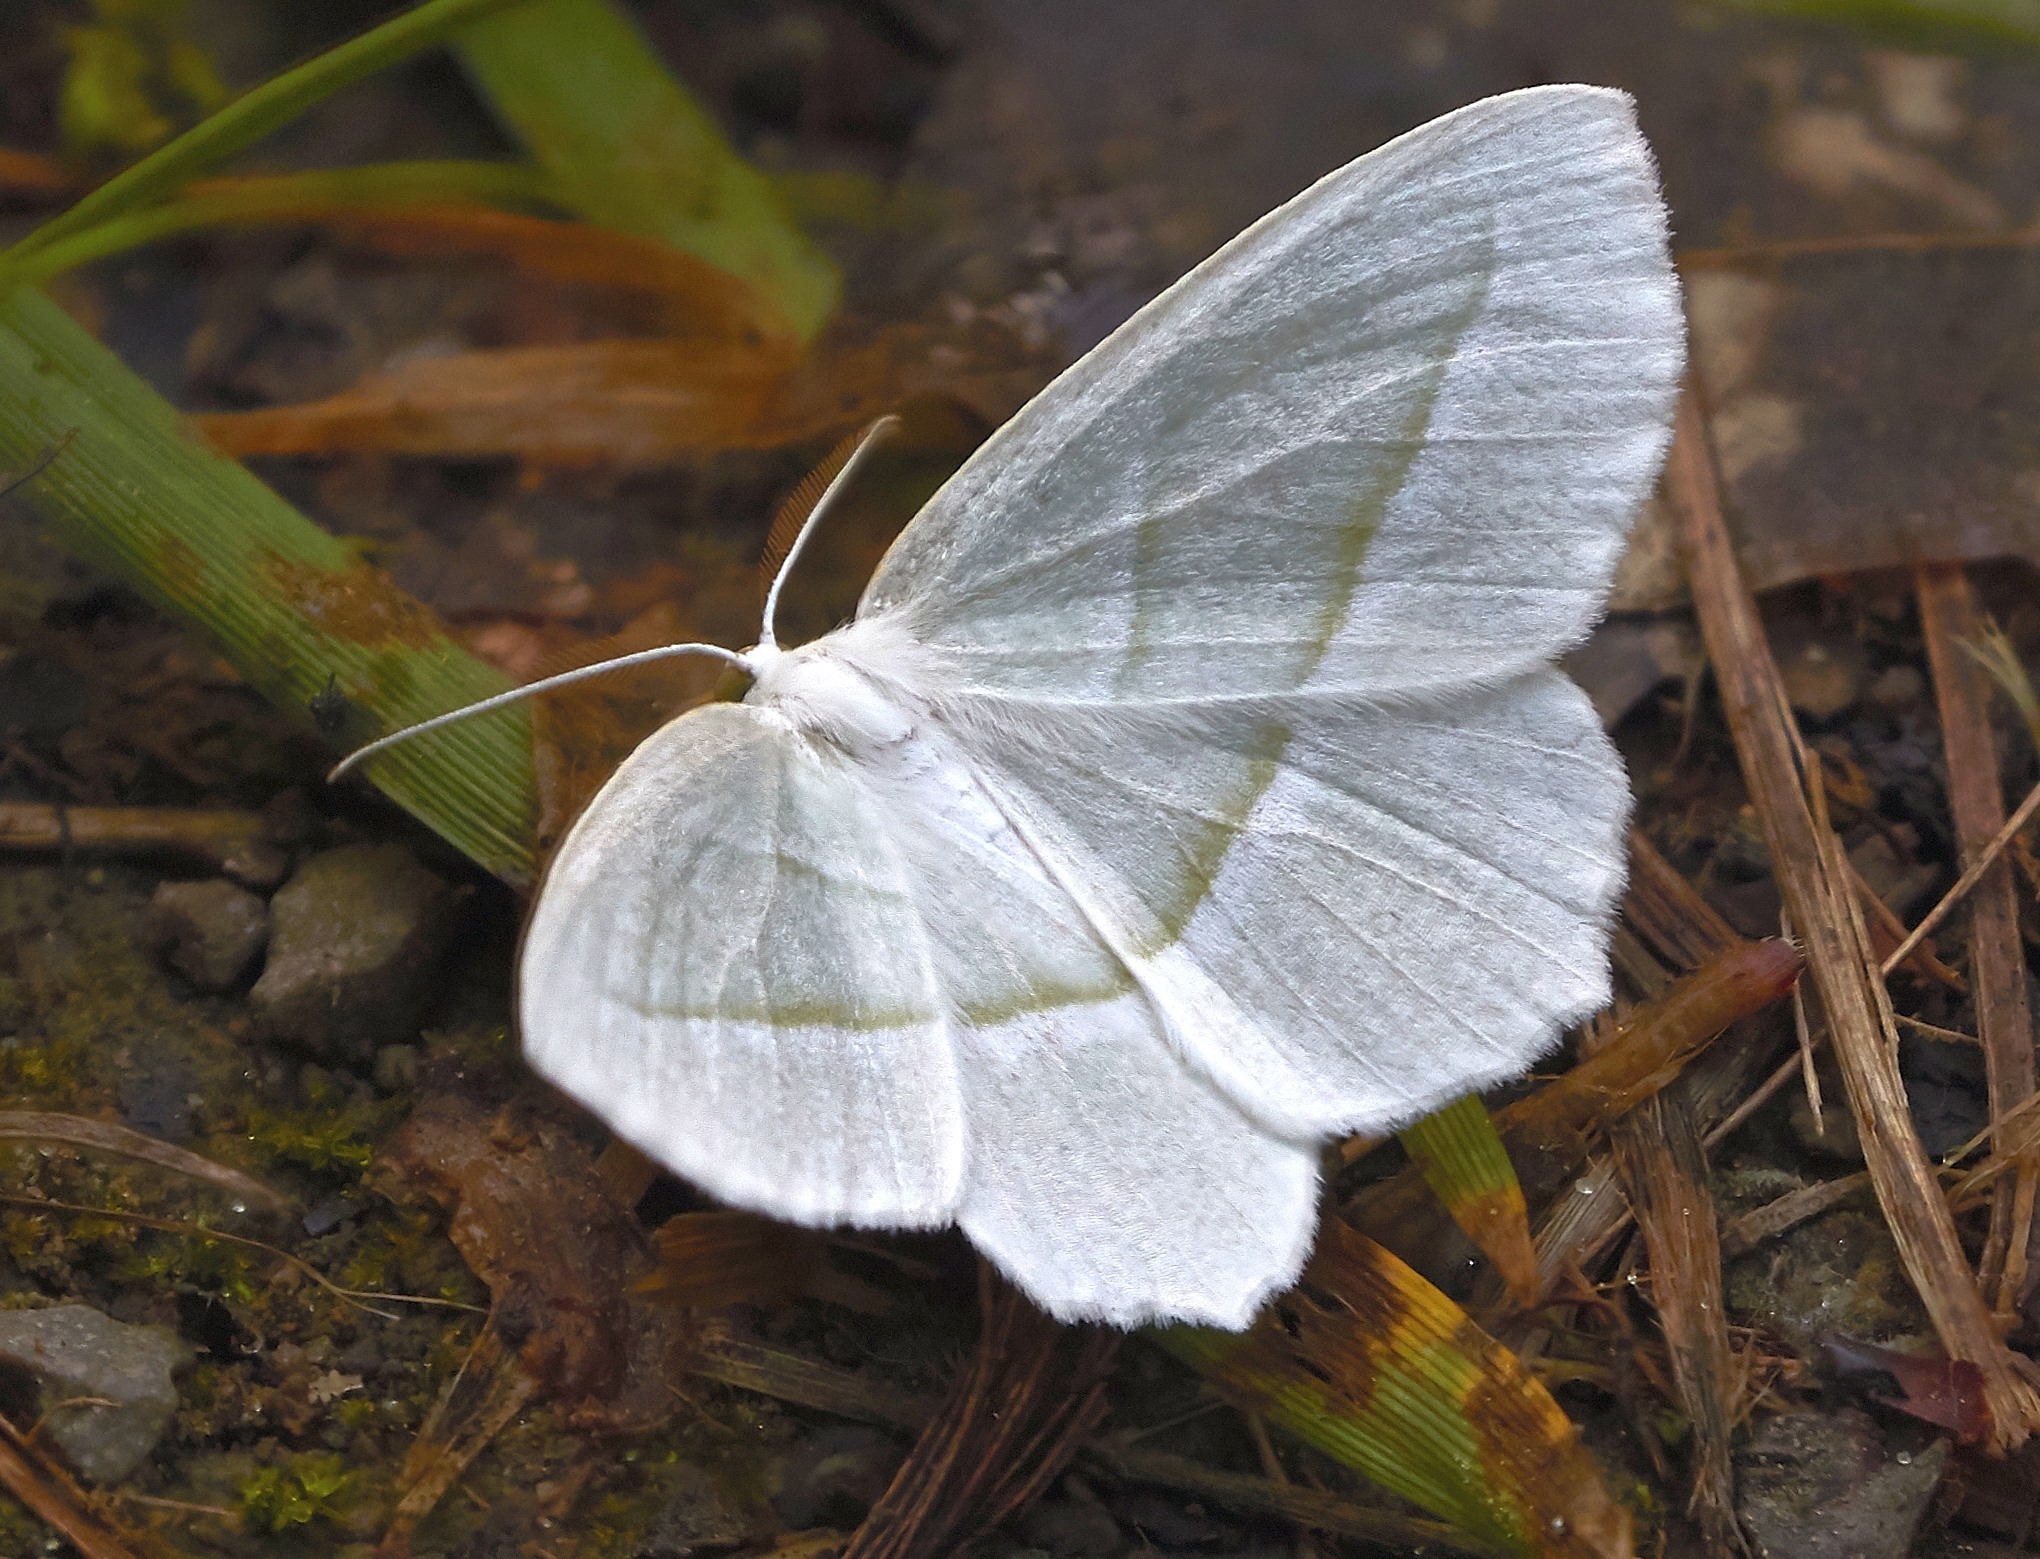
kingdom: Animalia
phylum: Arthropoda
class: Insecta
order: Lepidoptera
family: Geometridae
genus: Campaea
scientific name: Campaea perlata
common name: Fringed looper
